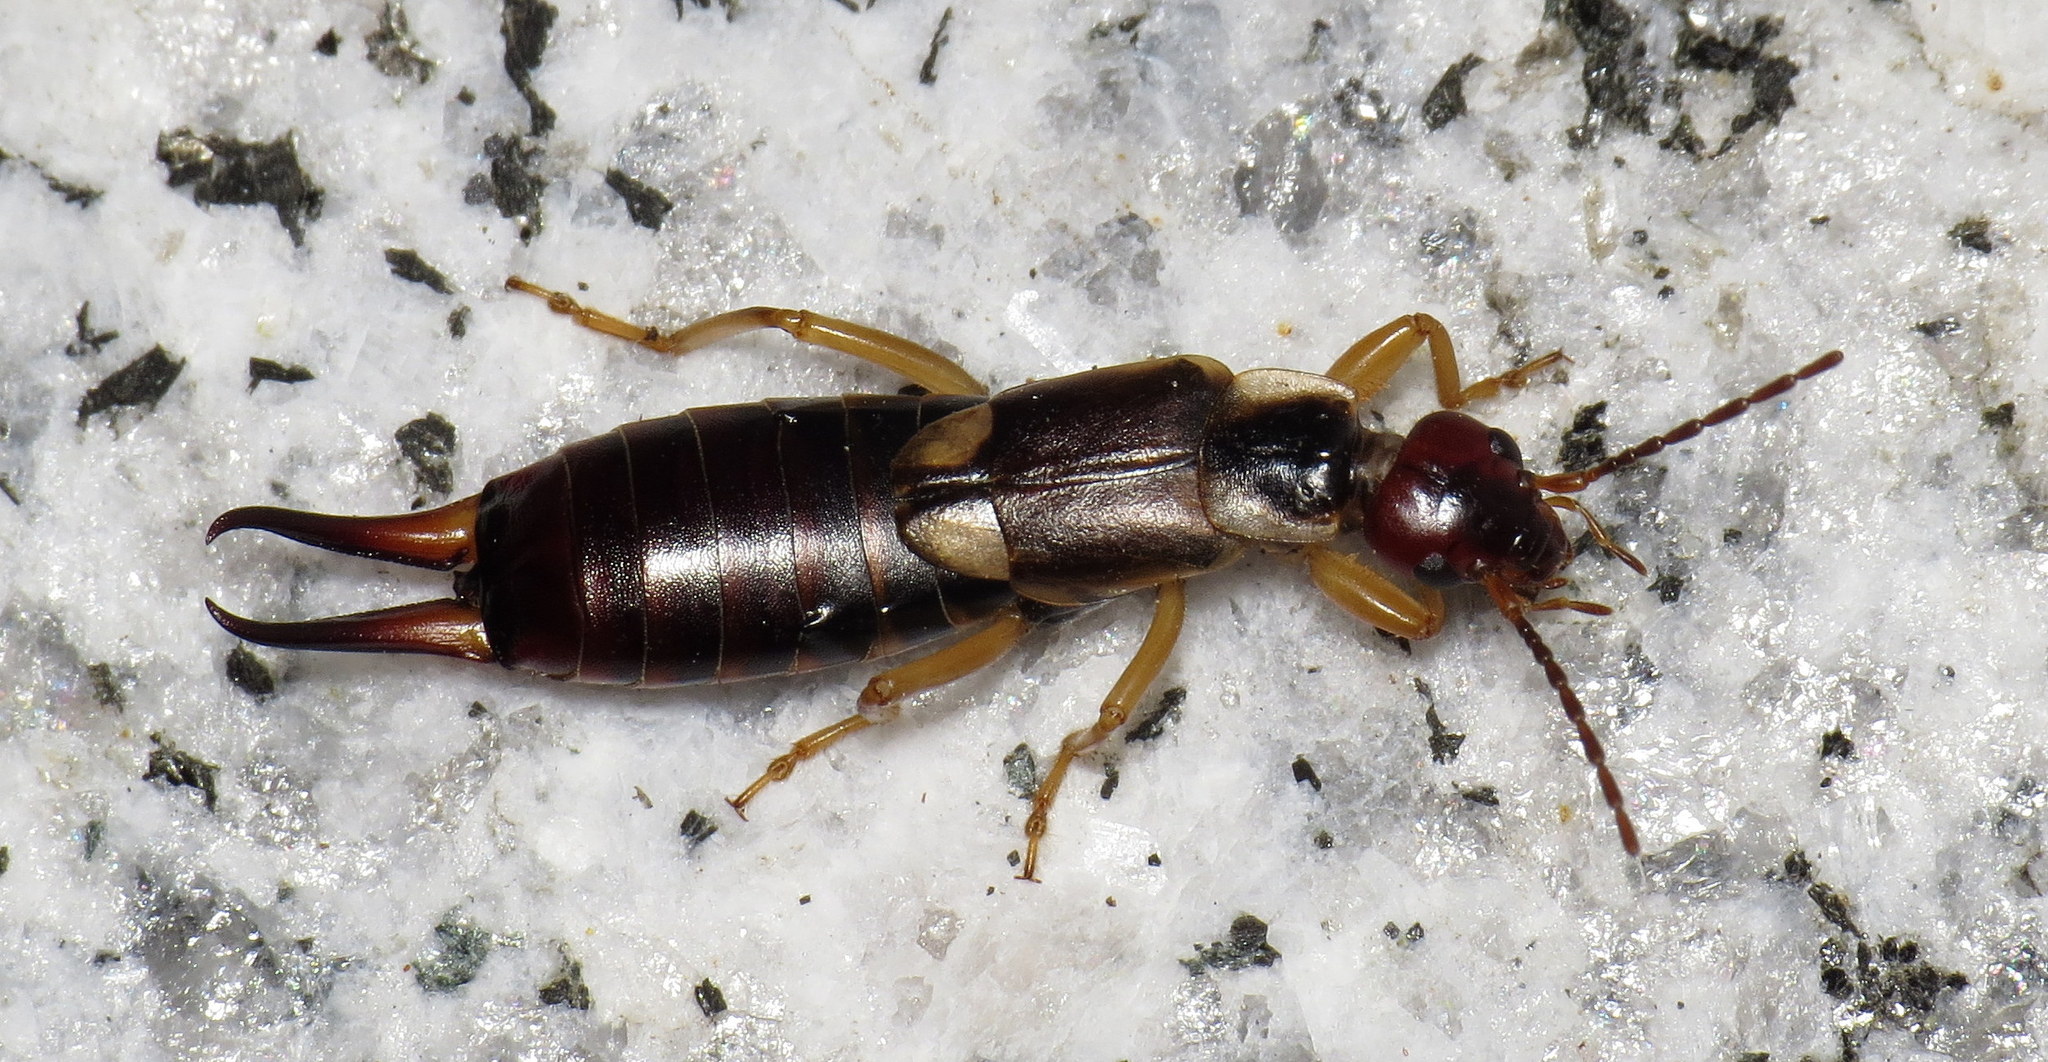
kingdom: Animalia
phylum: Arthropoda
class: Insecta
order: Dermaptera
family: Forficulidae
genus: Forficula
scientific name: Forficula
